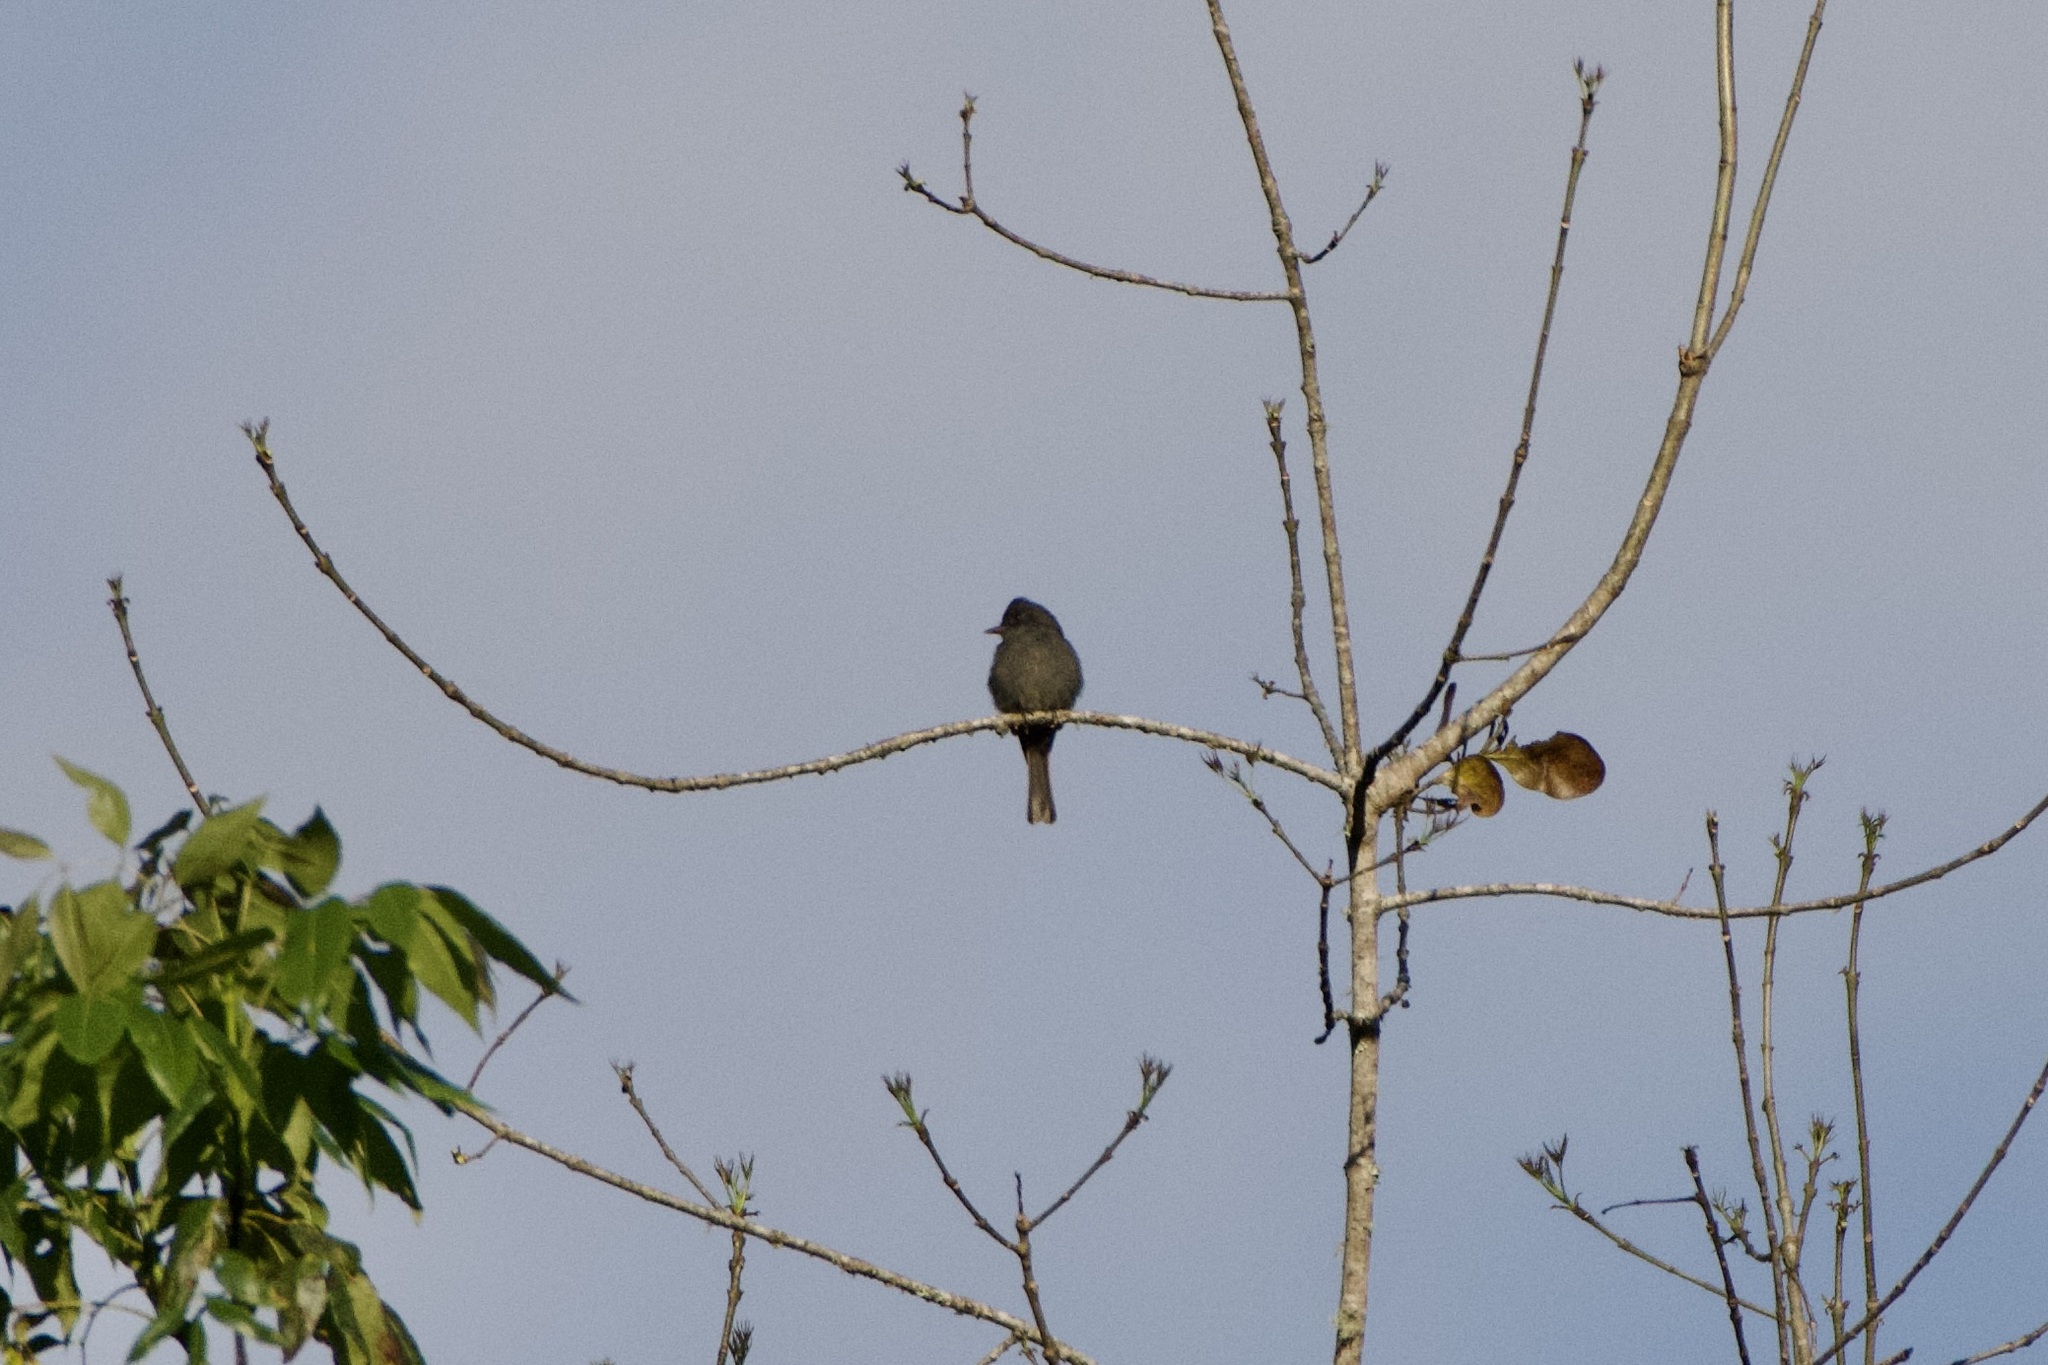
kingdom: Animalia
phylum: Chordata
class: Aves
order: Passeriformes
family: Tyrannidae
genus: Contopus
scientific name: Contopus fumigatus
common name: Smoke-colored pewee
